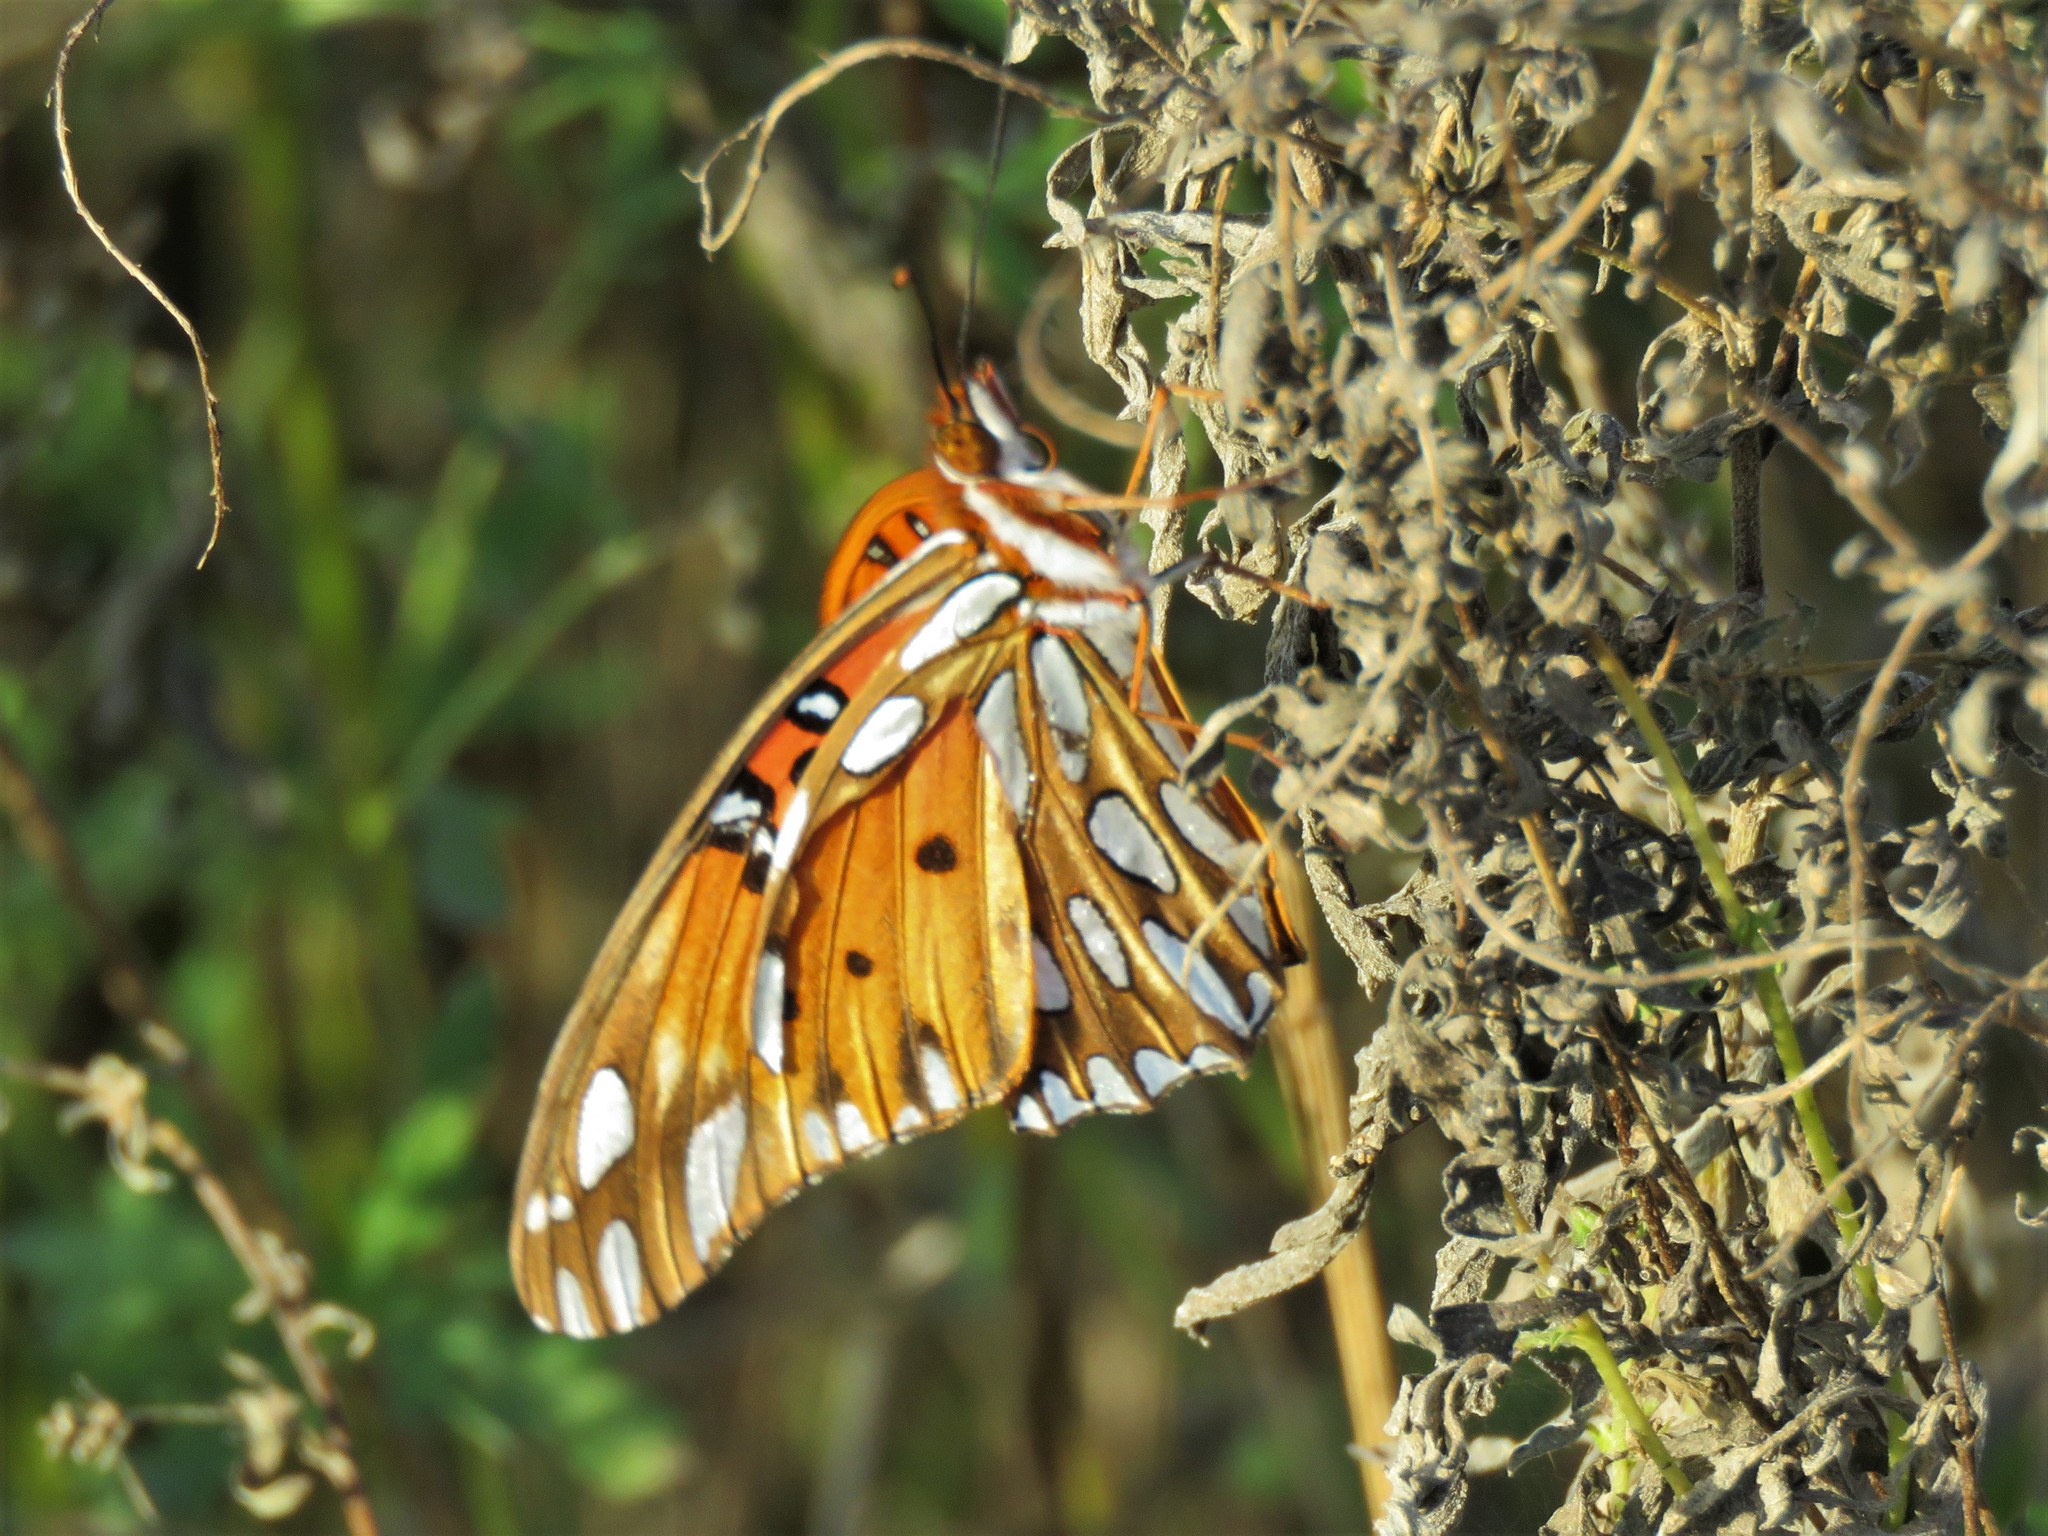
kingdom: Animalia
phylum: Arthropoda
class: Insecta
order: Lepidoptera
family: Nymphalidae
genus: Dione
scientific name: Dione vanillae
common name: Gulf fritillary
